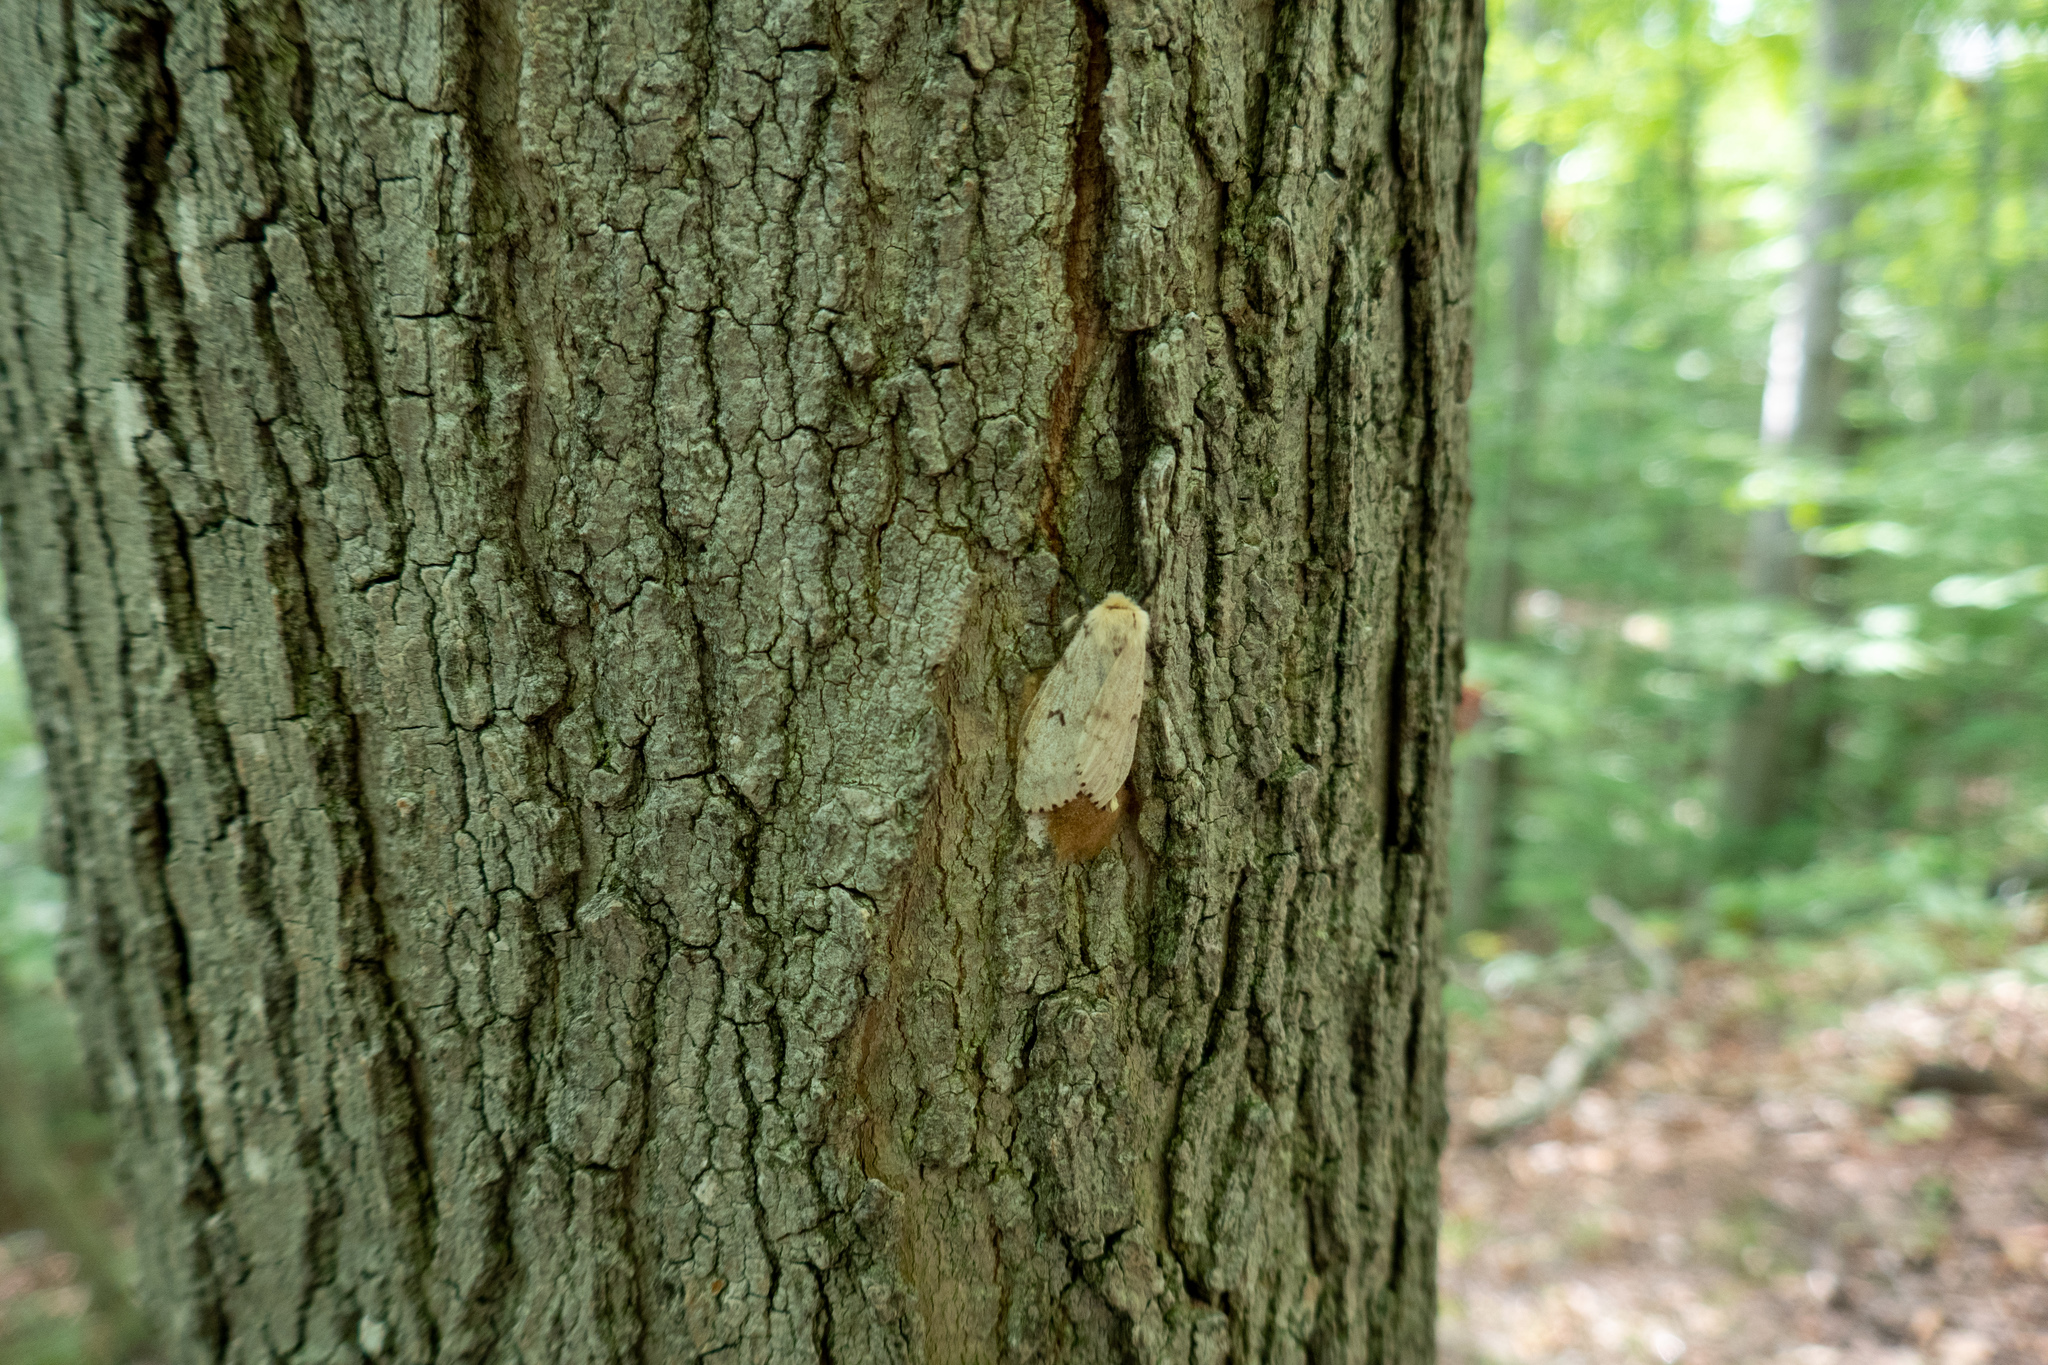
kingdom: Animalia
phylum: Arthropoda
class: Insecta
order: Lepidoptera
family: Erebidae
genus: Lymantria
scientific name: Lymantria dispar
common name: Gypsy moth
